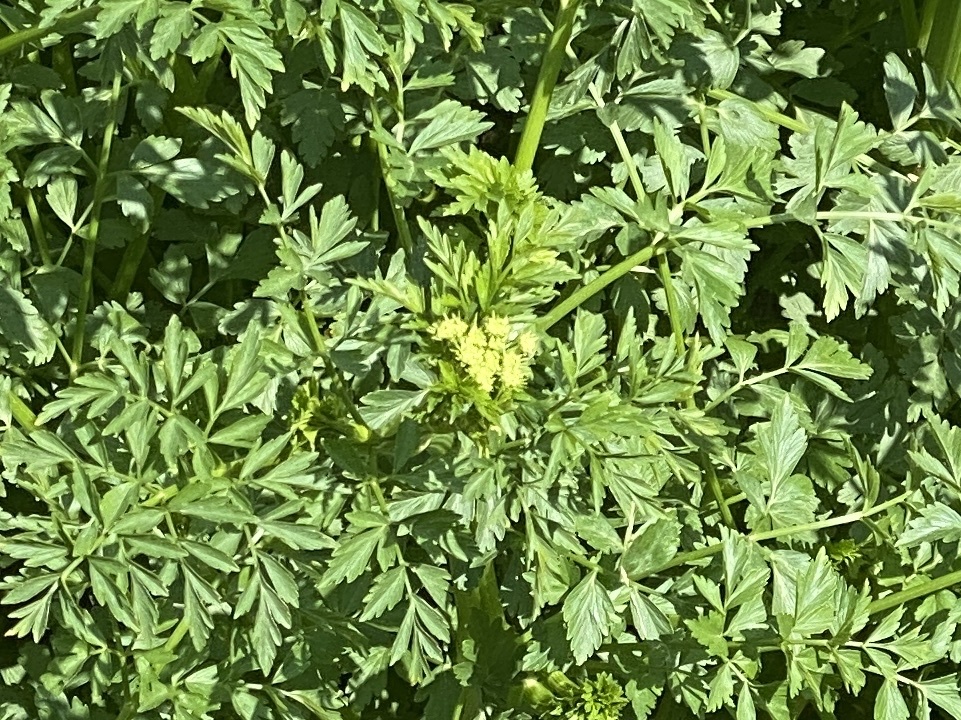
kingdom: Plantae
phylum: Tracheophyta
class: Magnoliopsida
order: Apiales
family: Apiaceae
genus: Oenanthe
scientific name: Oenanthe crocata
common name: Hemlock water-dropwort
